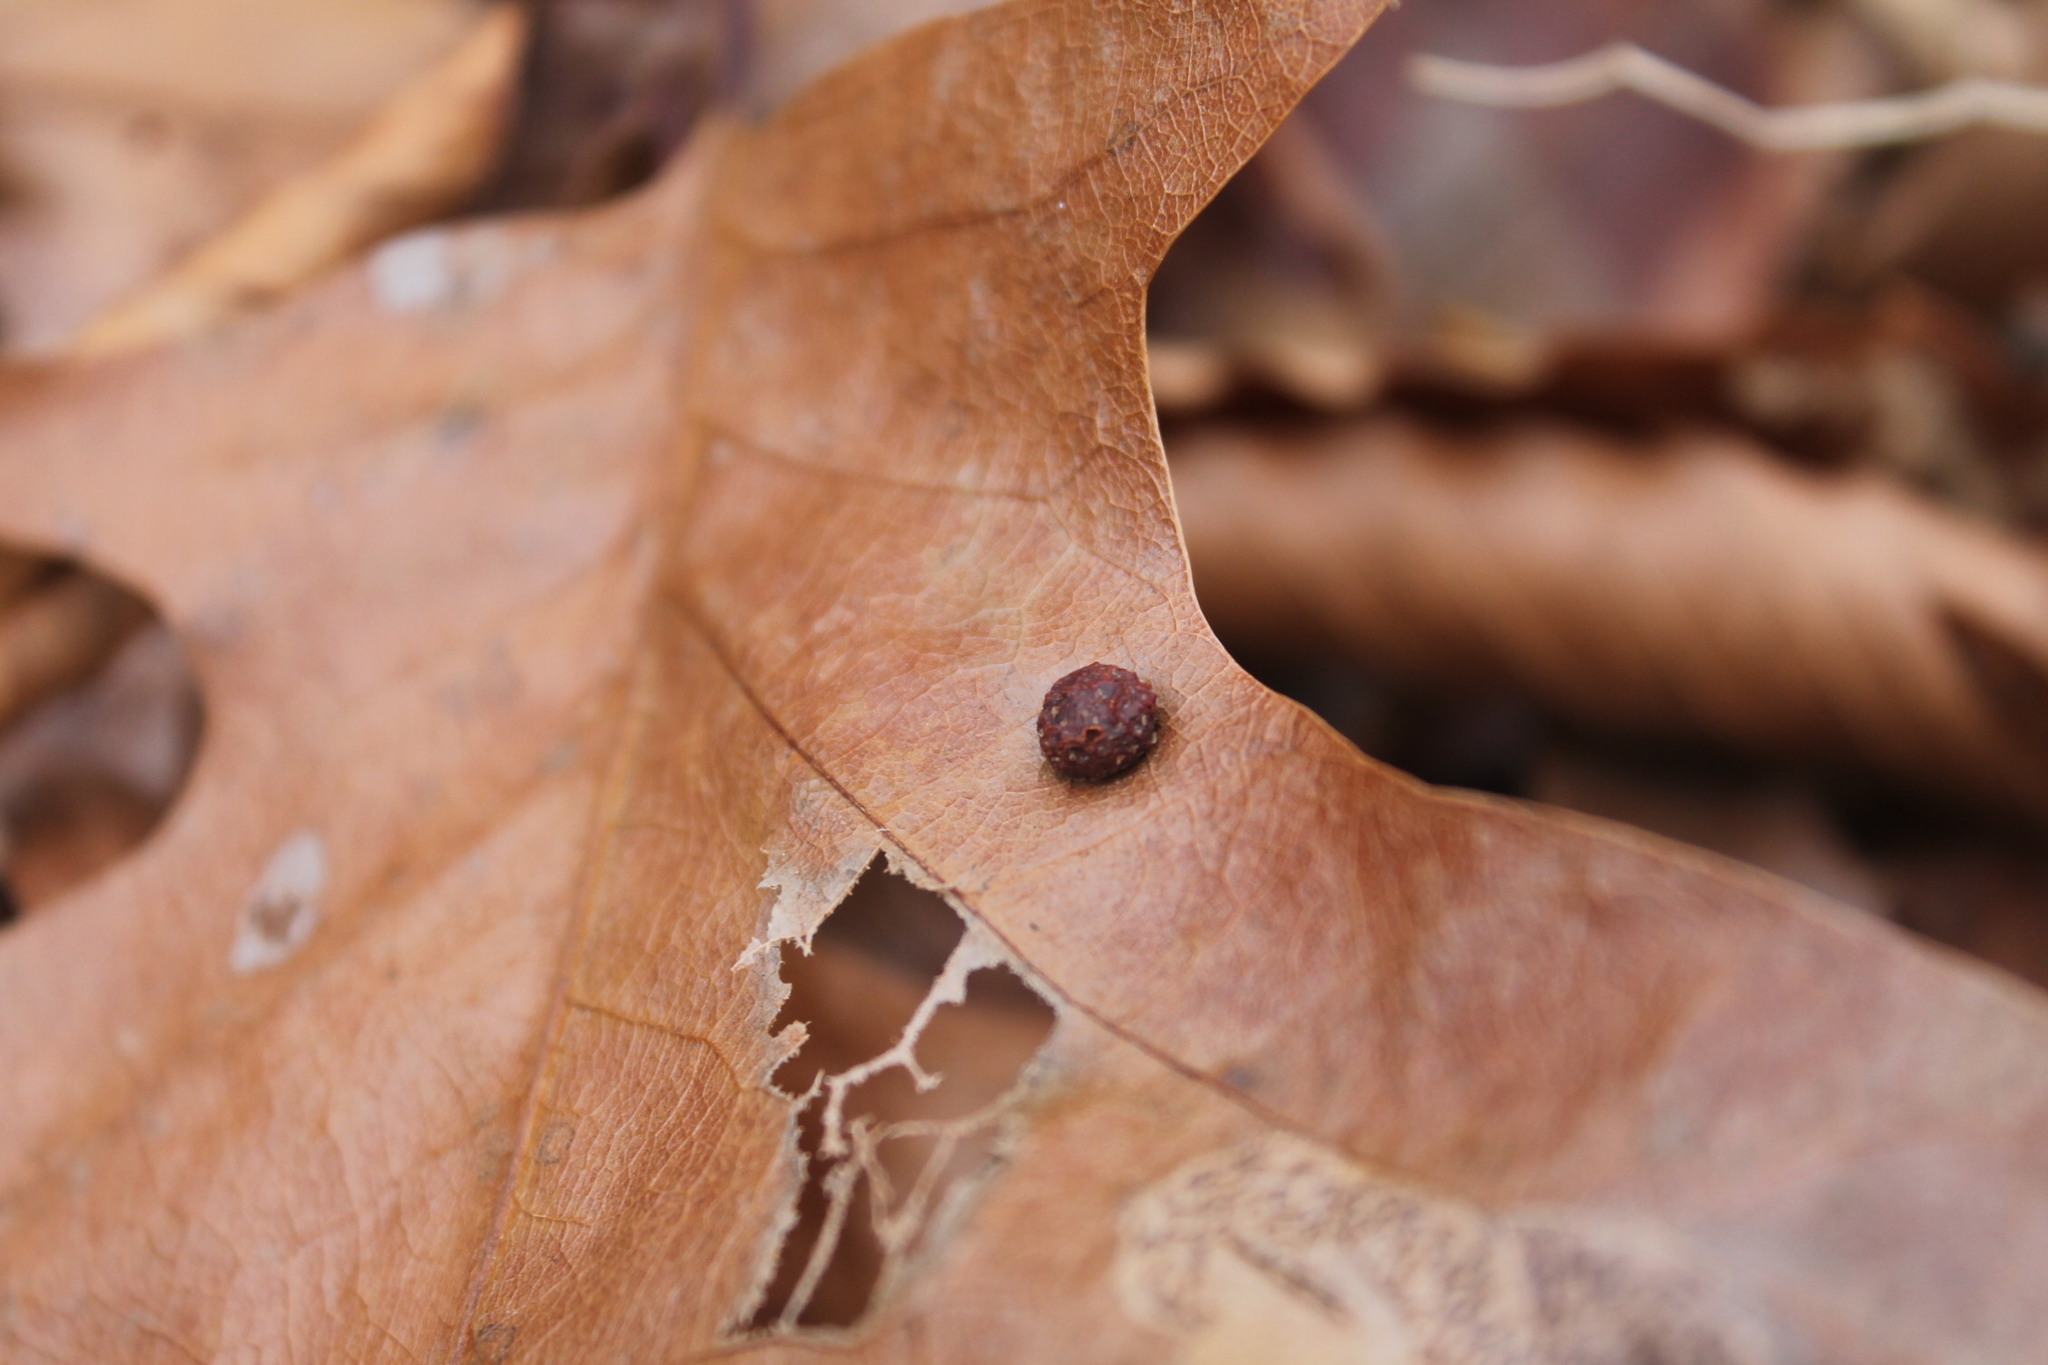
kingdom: Animalia
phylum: Arthropoda
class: Insecta
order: Diptera
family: Cecidomyiidae
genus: Polystepha
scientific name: Polystepha pilulae
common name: Oak leaf gall midge
